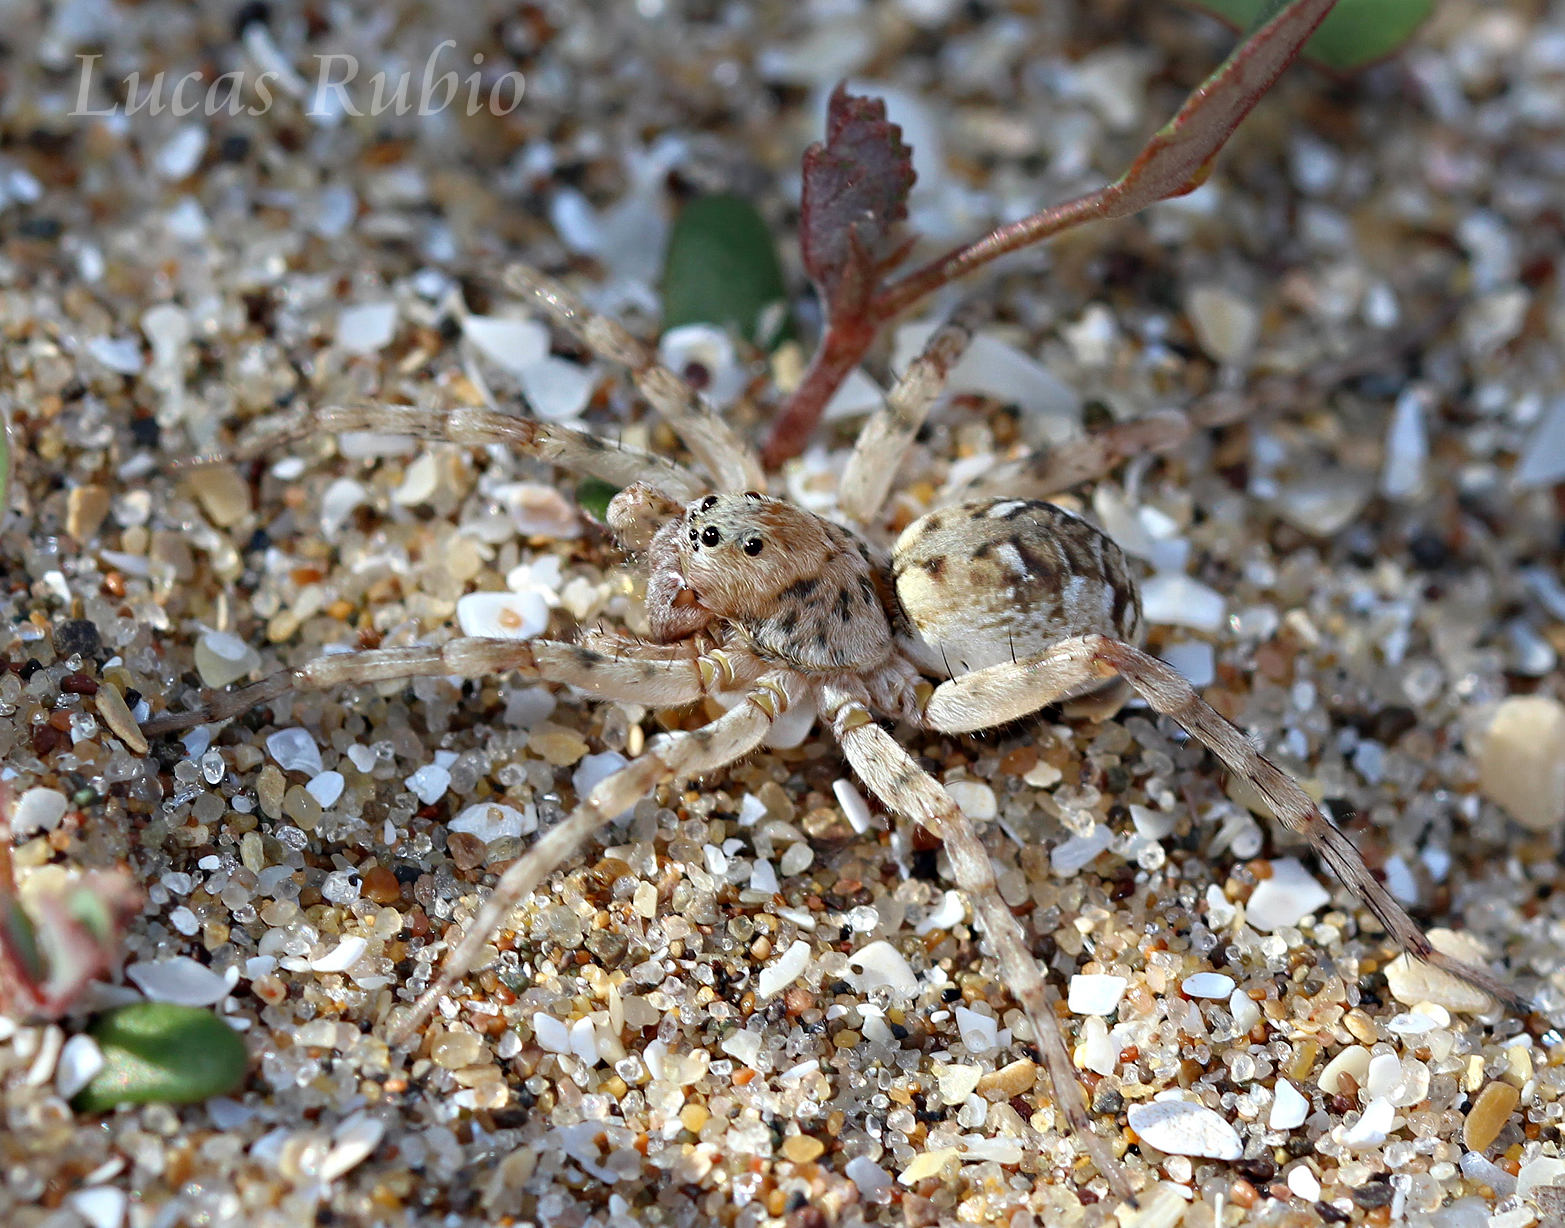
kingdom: Animalia
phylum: Arthropoda
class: Arachnida
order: Araneae
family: Lycosidae
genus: Allocosa
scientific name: Allocosa senex
